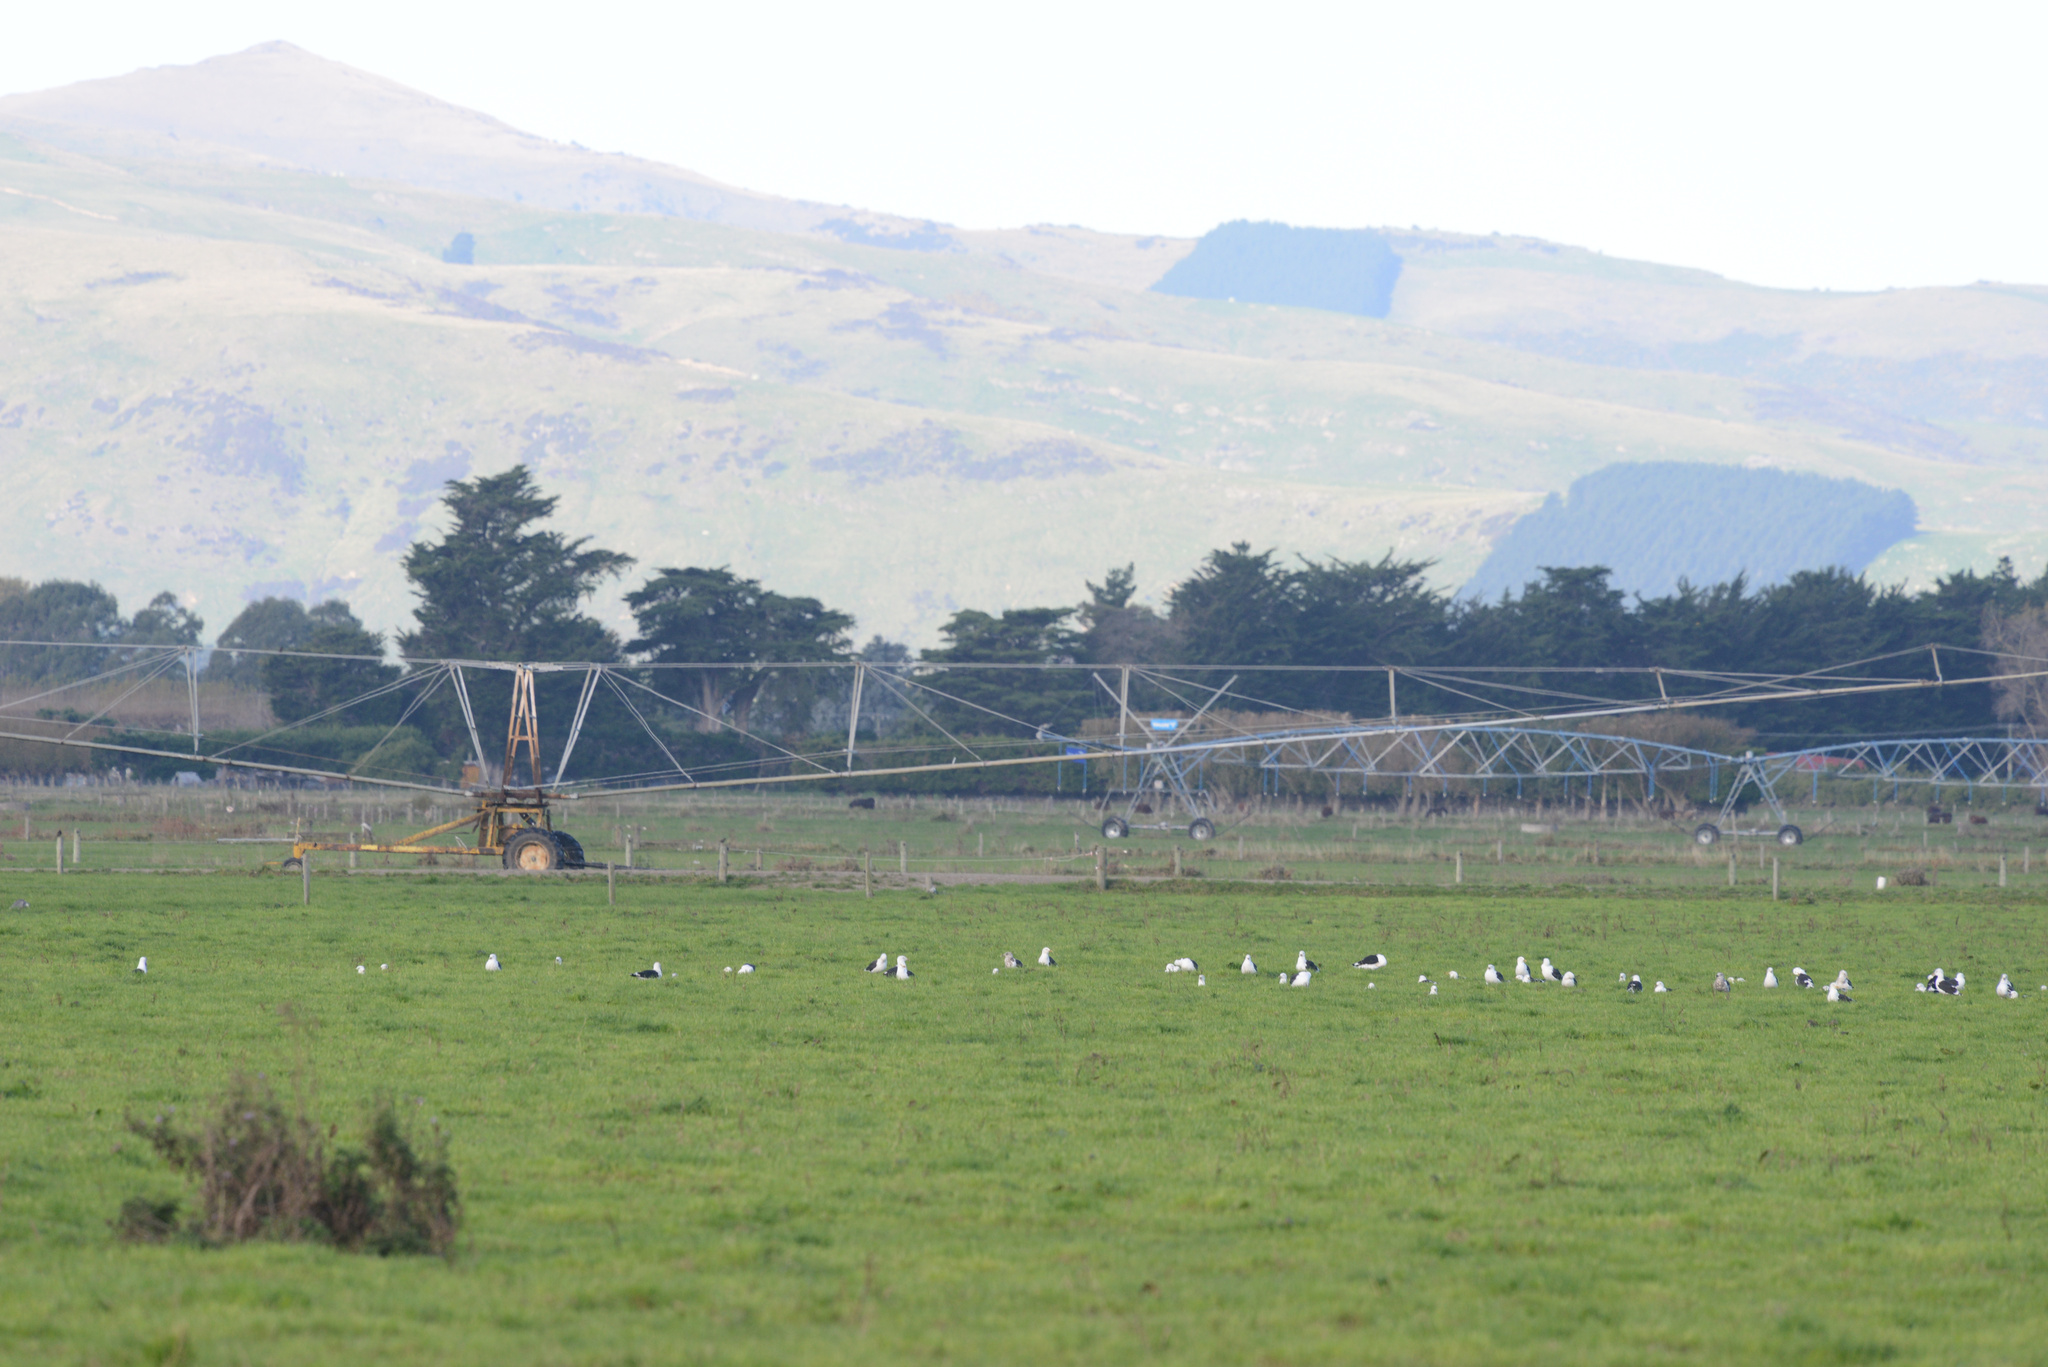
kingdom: Animalia
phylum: Chordata
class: Aves
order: Charadriiformes
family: Laridae
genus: Larus
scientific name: Larus dominicanus
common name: Kelp gull
